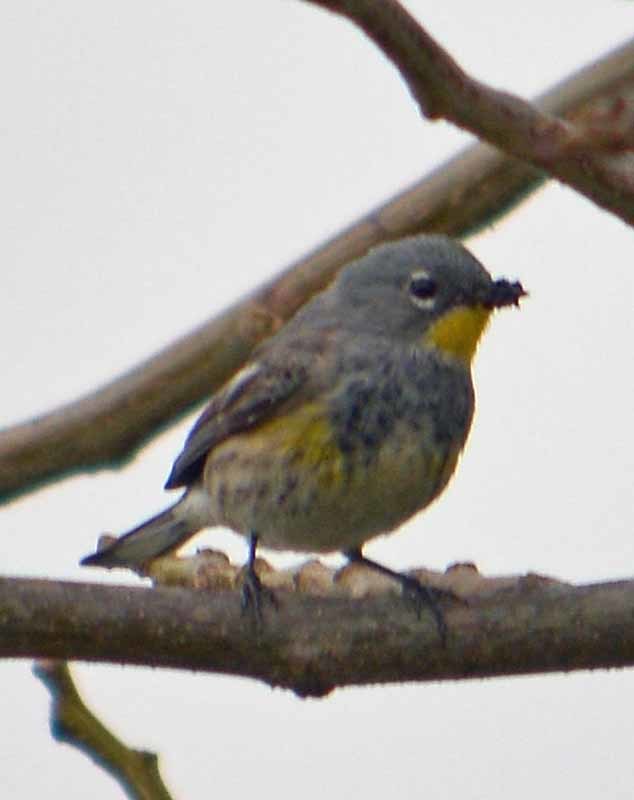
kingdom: Animalia
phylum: Chordata
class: Aves
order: Passeriformes
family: Parulidae
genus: Setophaga
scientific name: Setophaga coronata
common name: Myrtle warbler
